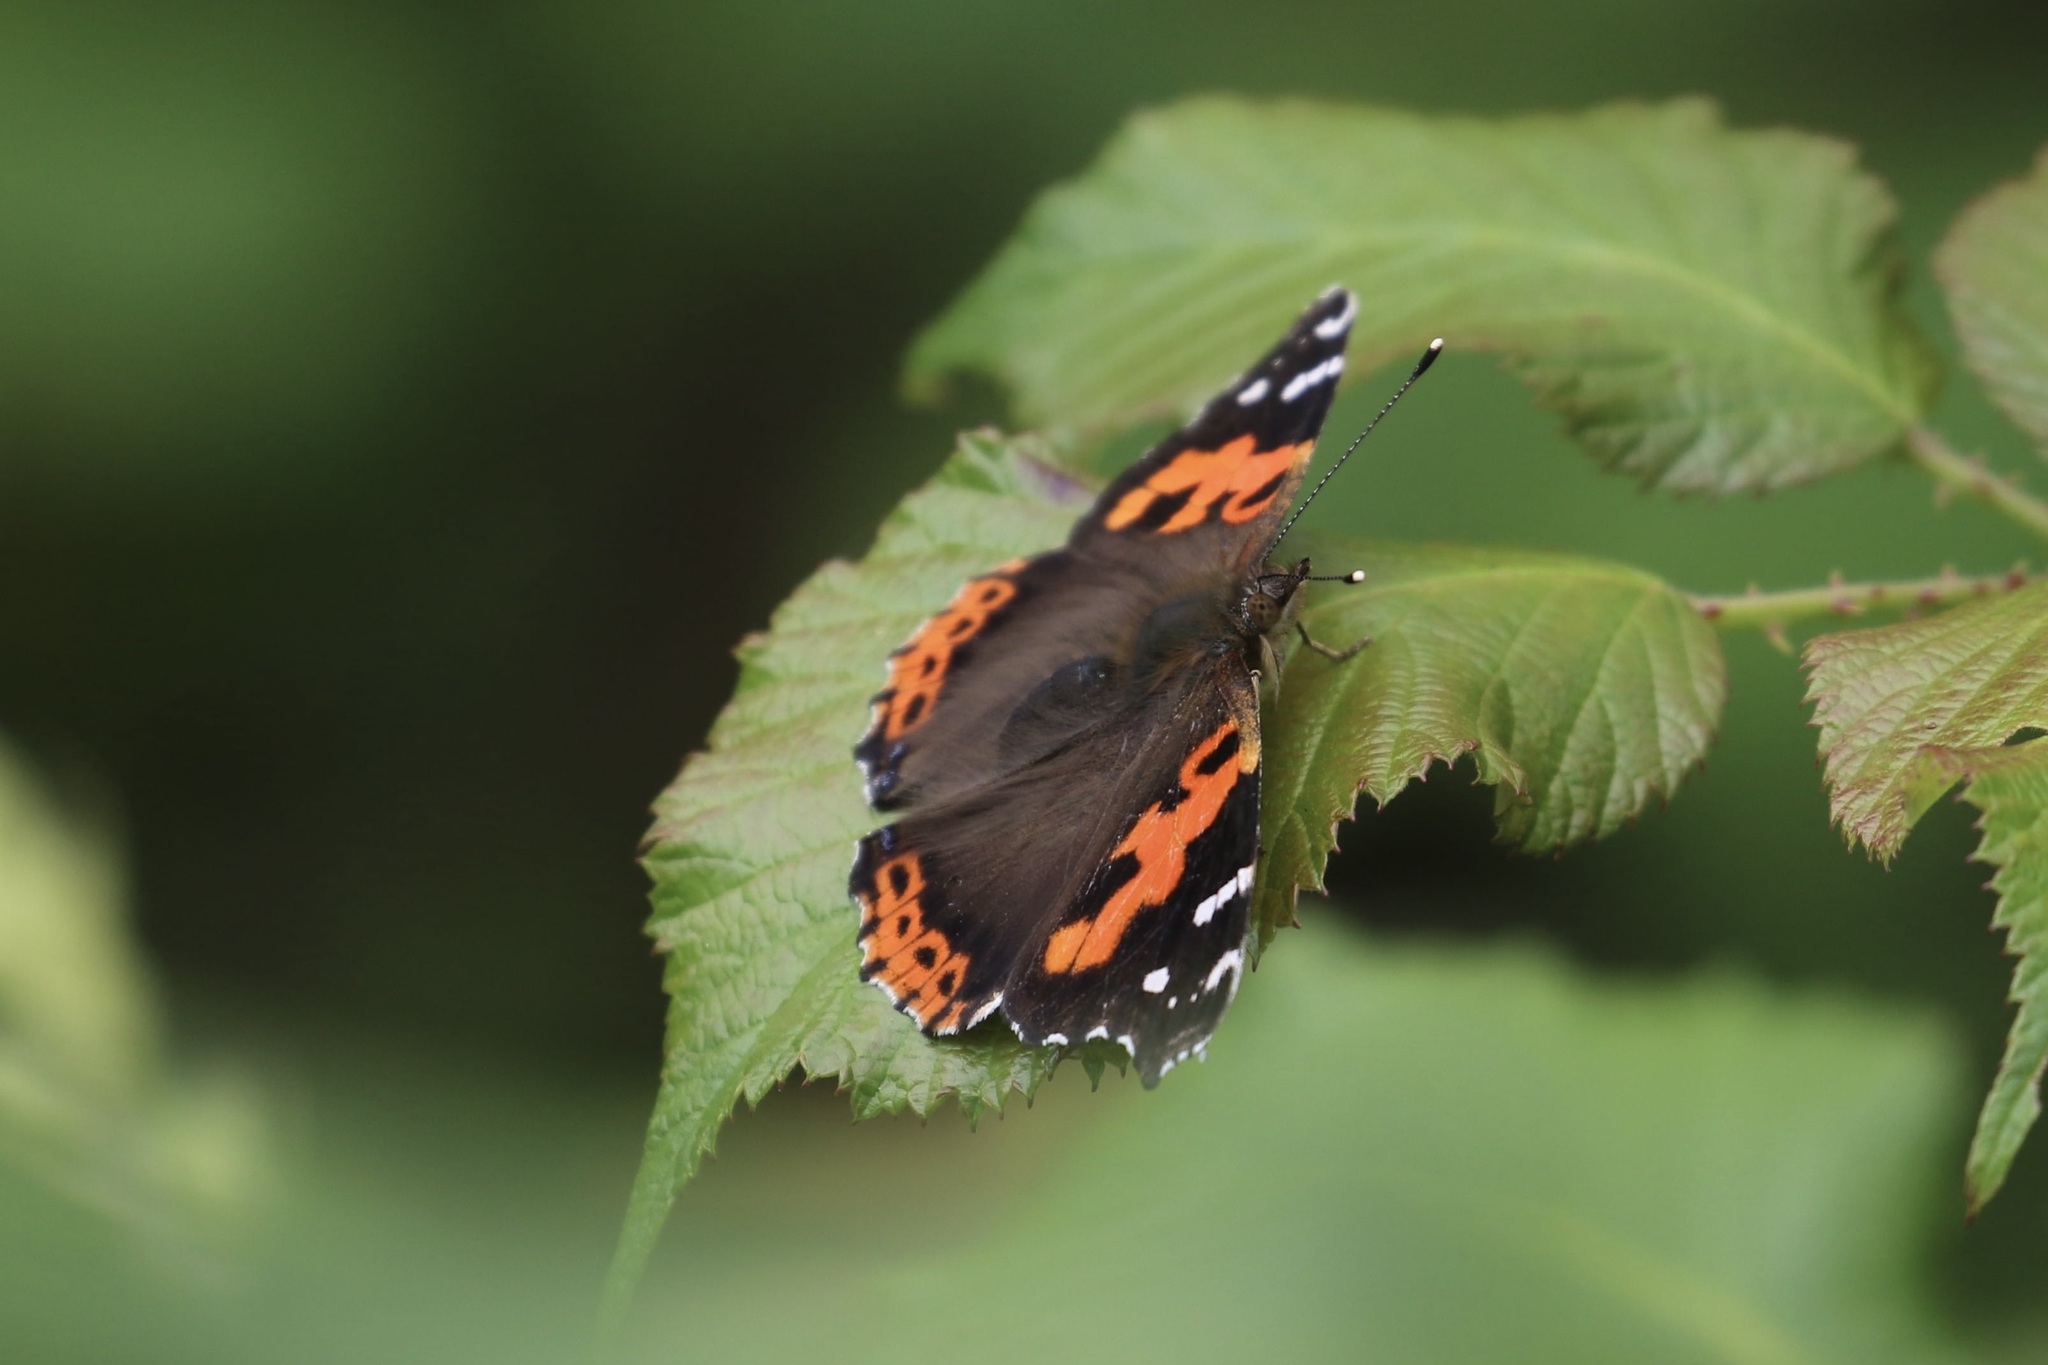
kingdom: Animalia
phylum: Arthropoda
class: Insecta
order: Lepidoptera
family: Nymphalidae
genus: Vanessa
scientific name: Vanessa vulcania
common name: Canary red admiral
